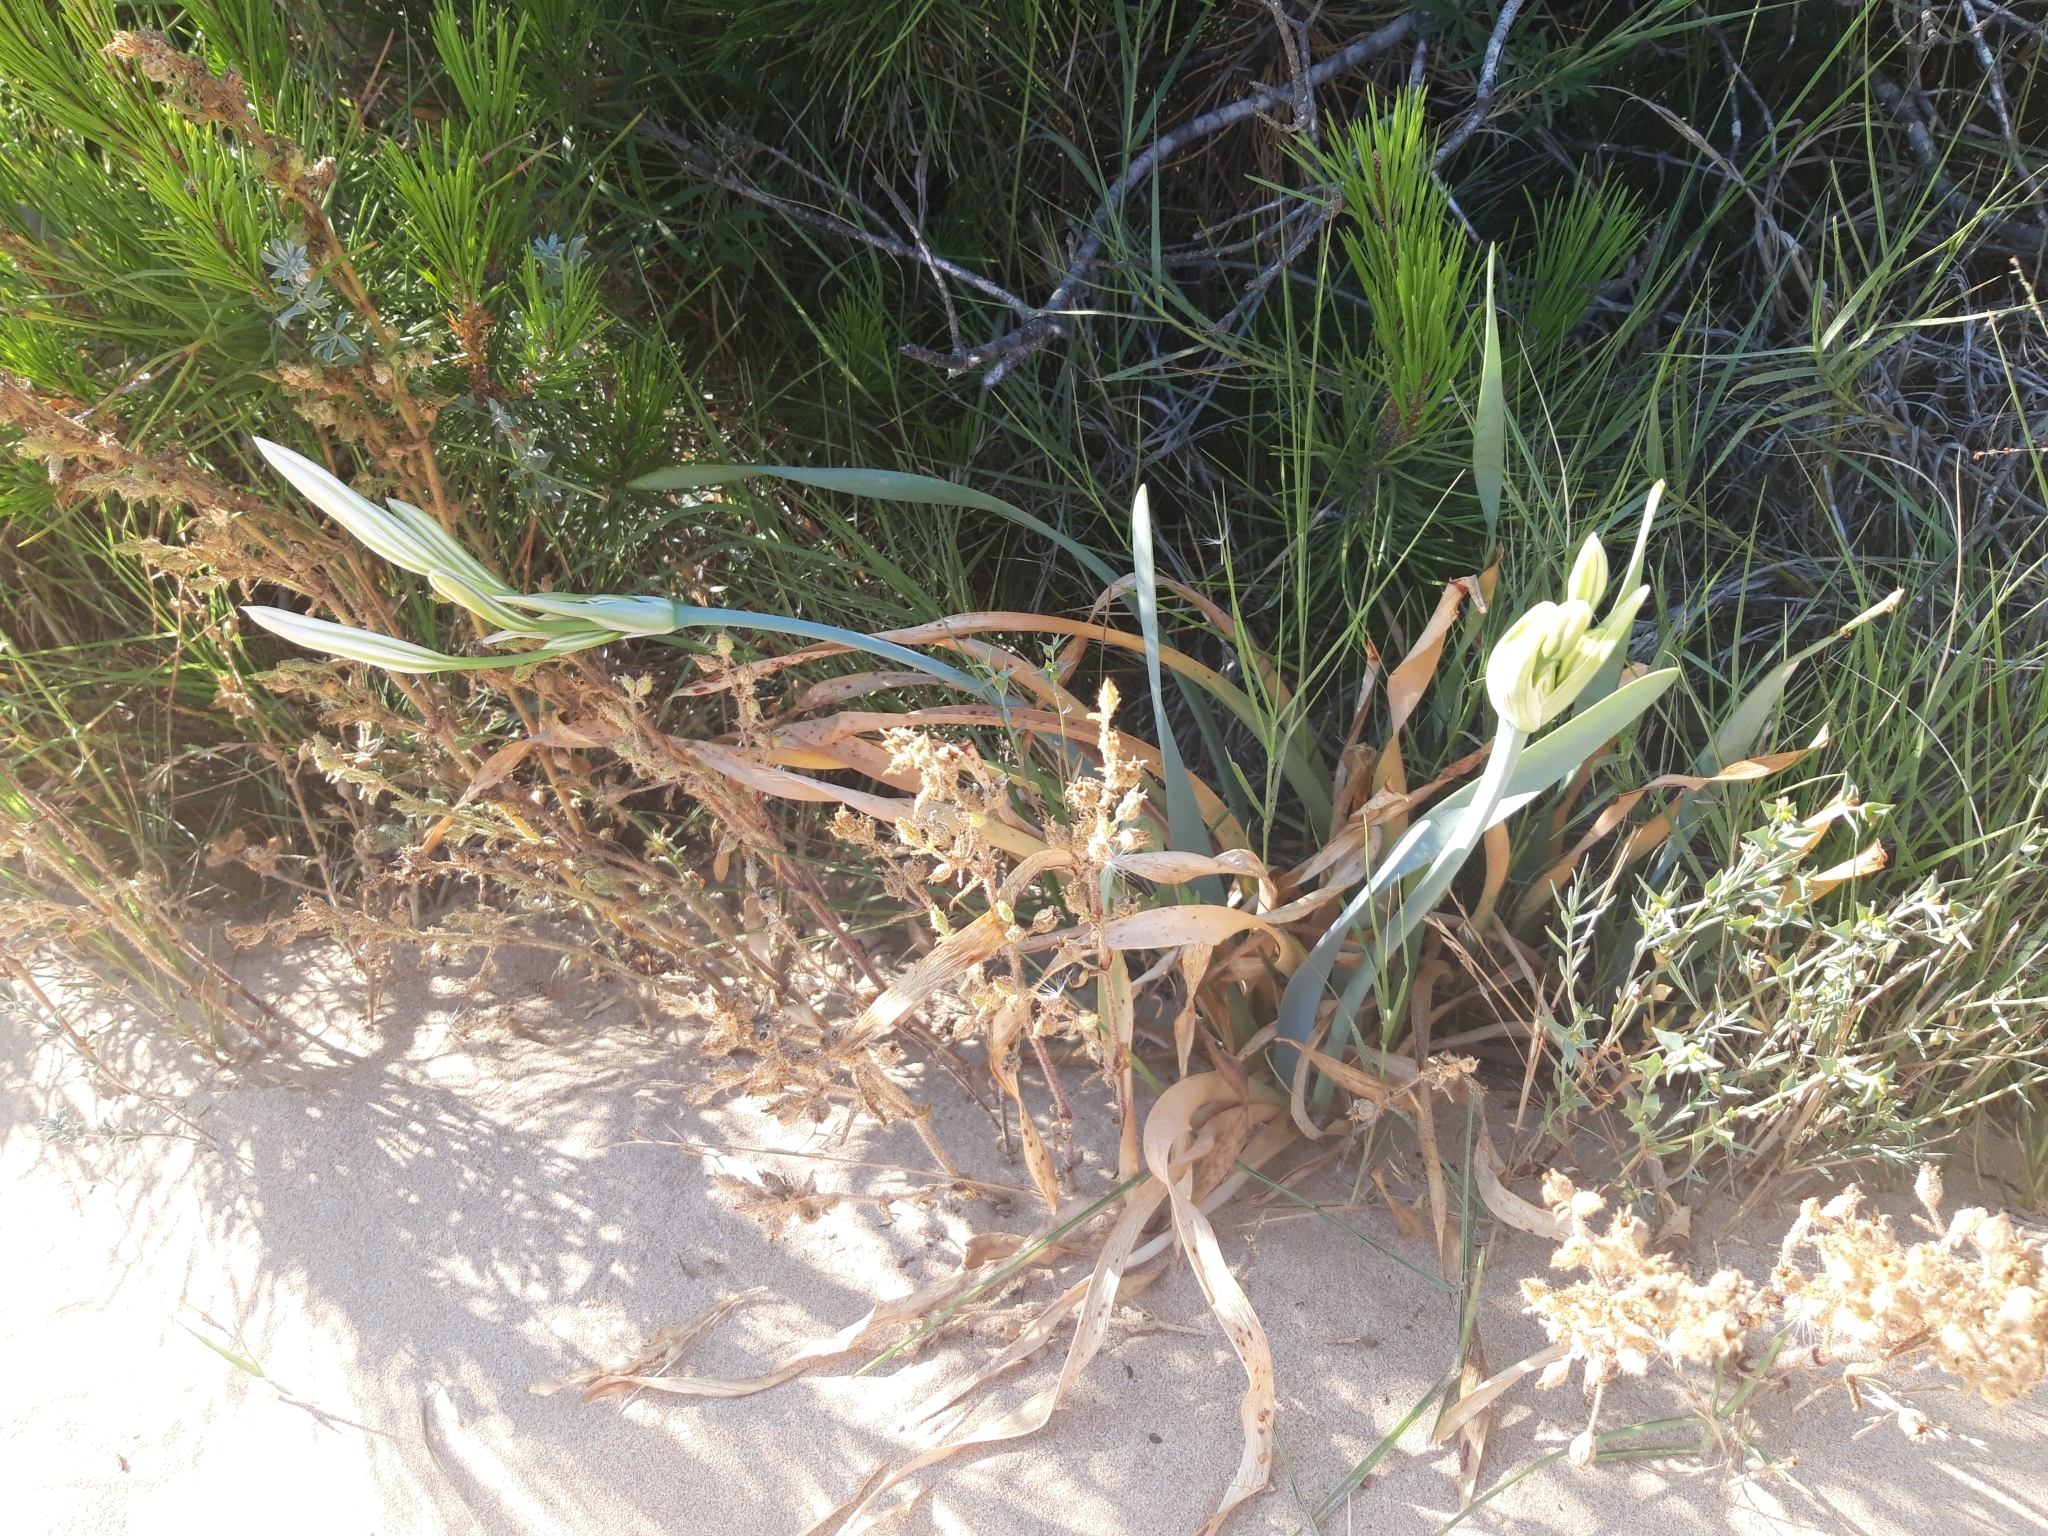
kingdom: Plantae
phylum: Tracheophyta
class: Liliopsida
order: Asparagales
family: Amaryllidaceae
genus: Pancratium
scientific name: Pancratium maritimum
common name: Sea-daffodil
